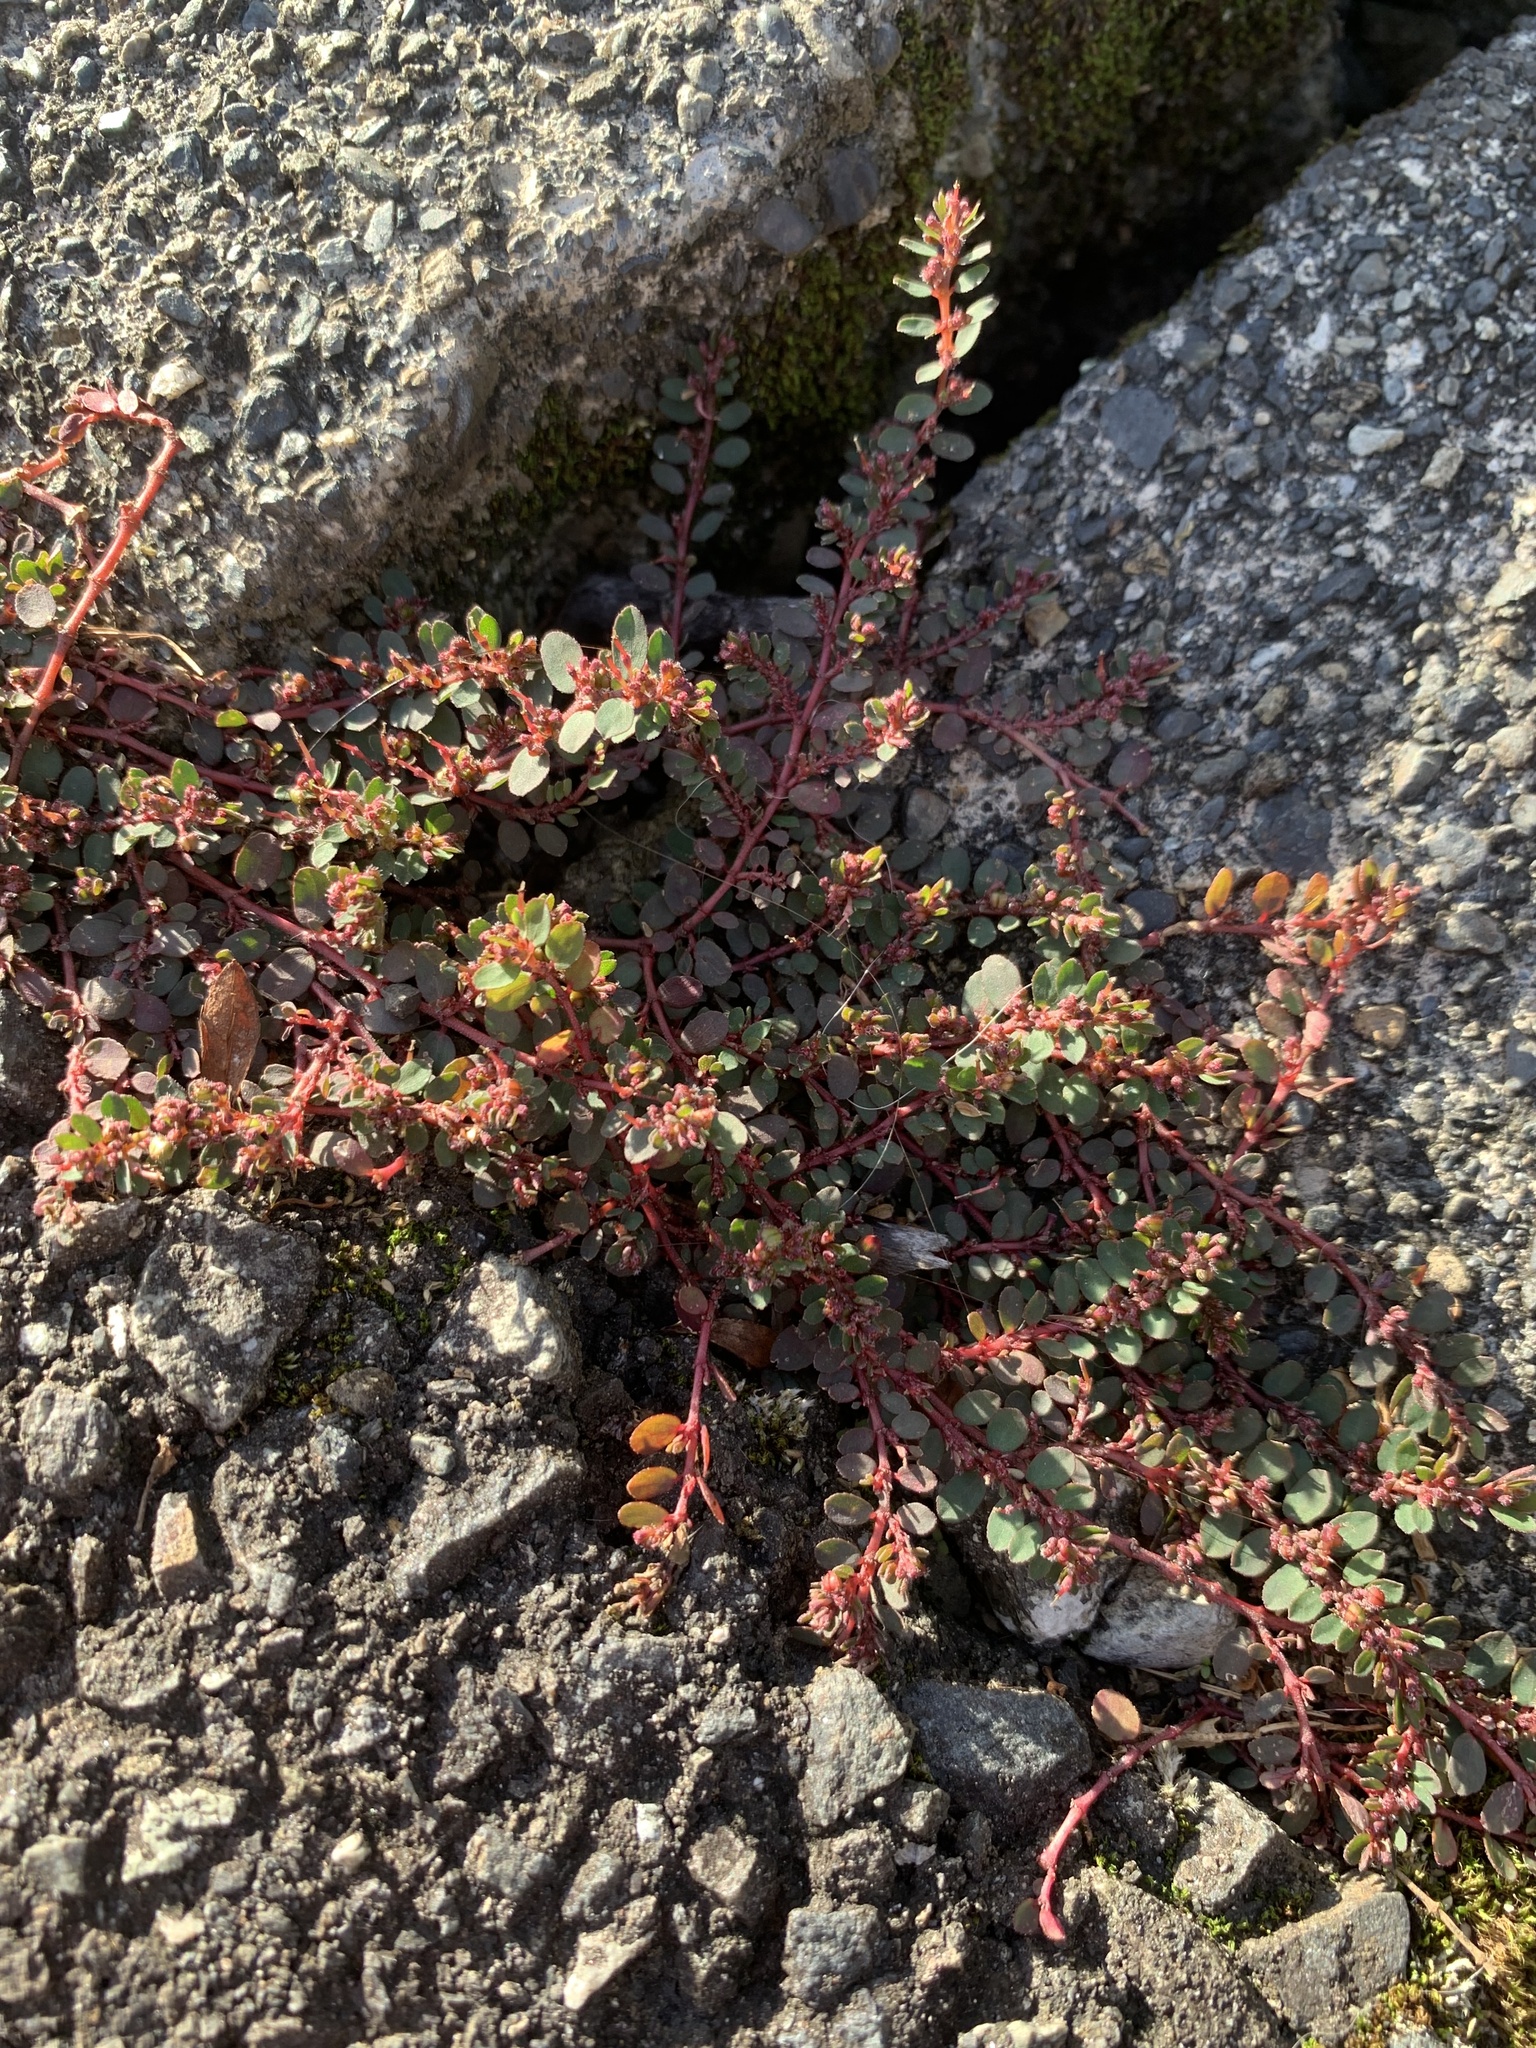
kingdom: Plantae
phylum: Tracheophyta
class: Magnoliopsida
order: Malpighiales
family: Euphorbiaceae
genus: Euphorbia
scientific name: Euphorbia prostrata
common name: Prostrate sandmat
